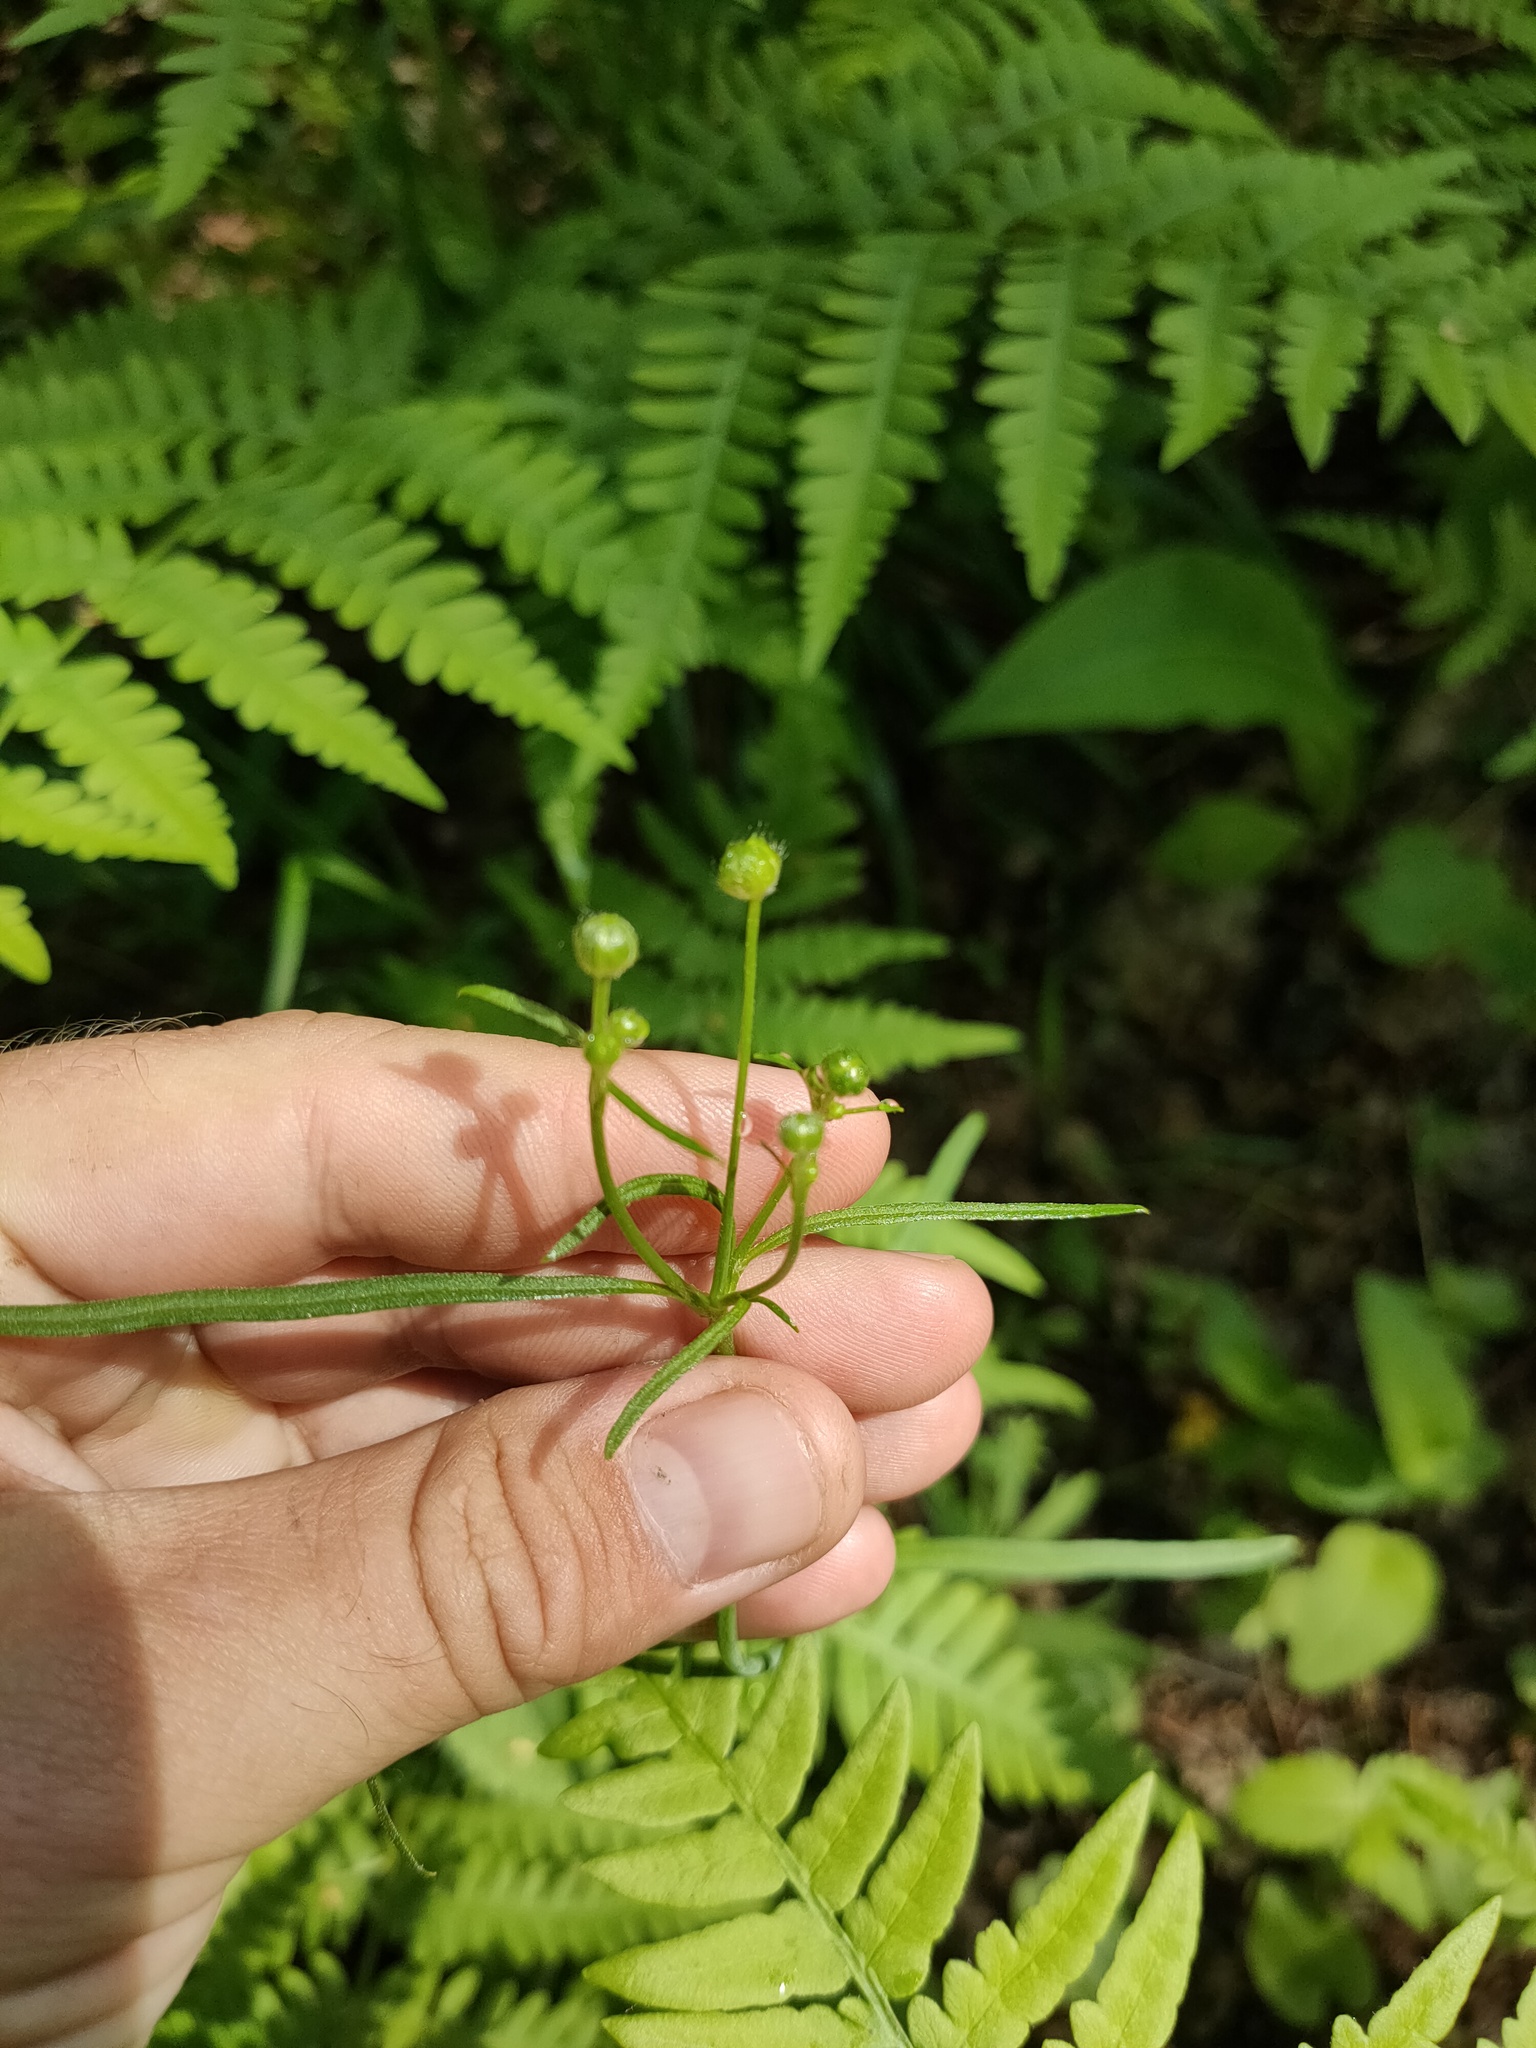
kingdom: Plantae
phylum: Tracheophyta
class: Magnoliopsida
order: Ranunculales
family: Ranunculaceae
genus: Ranunculus
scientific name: Ranunculus acris
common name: Meadow buttercup
